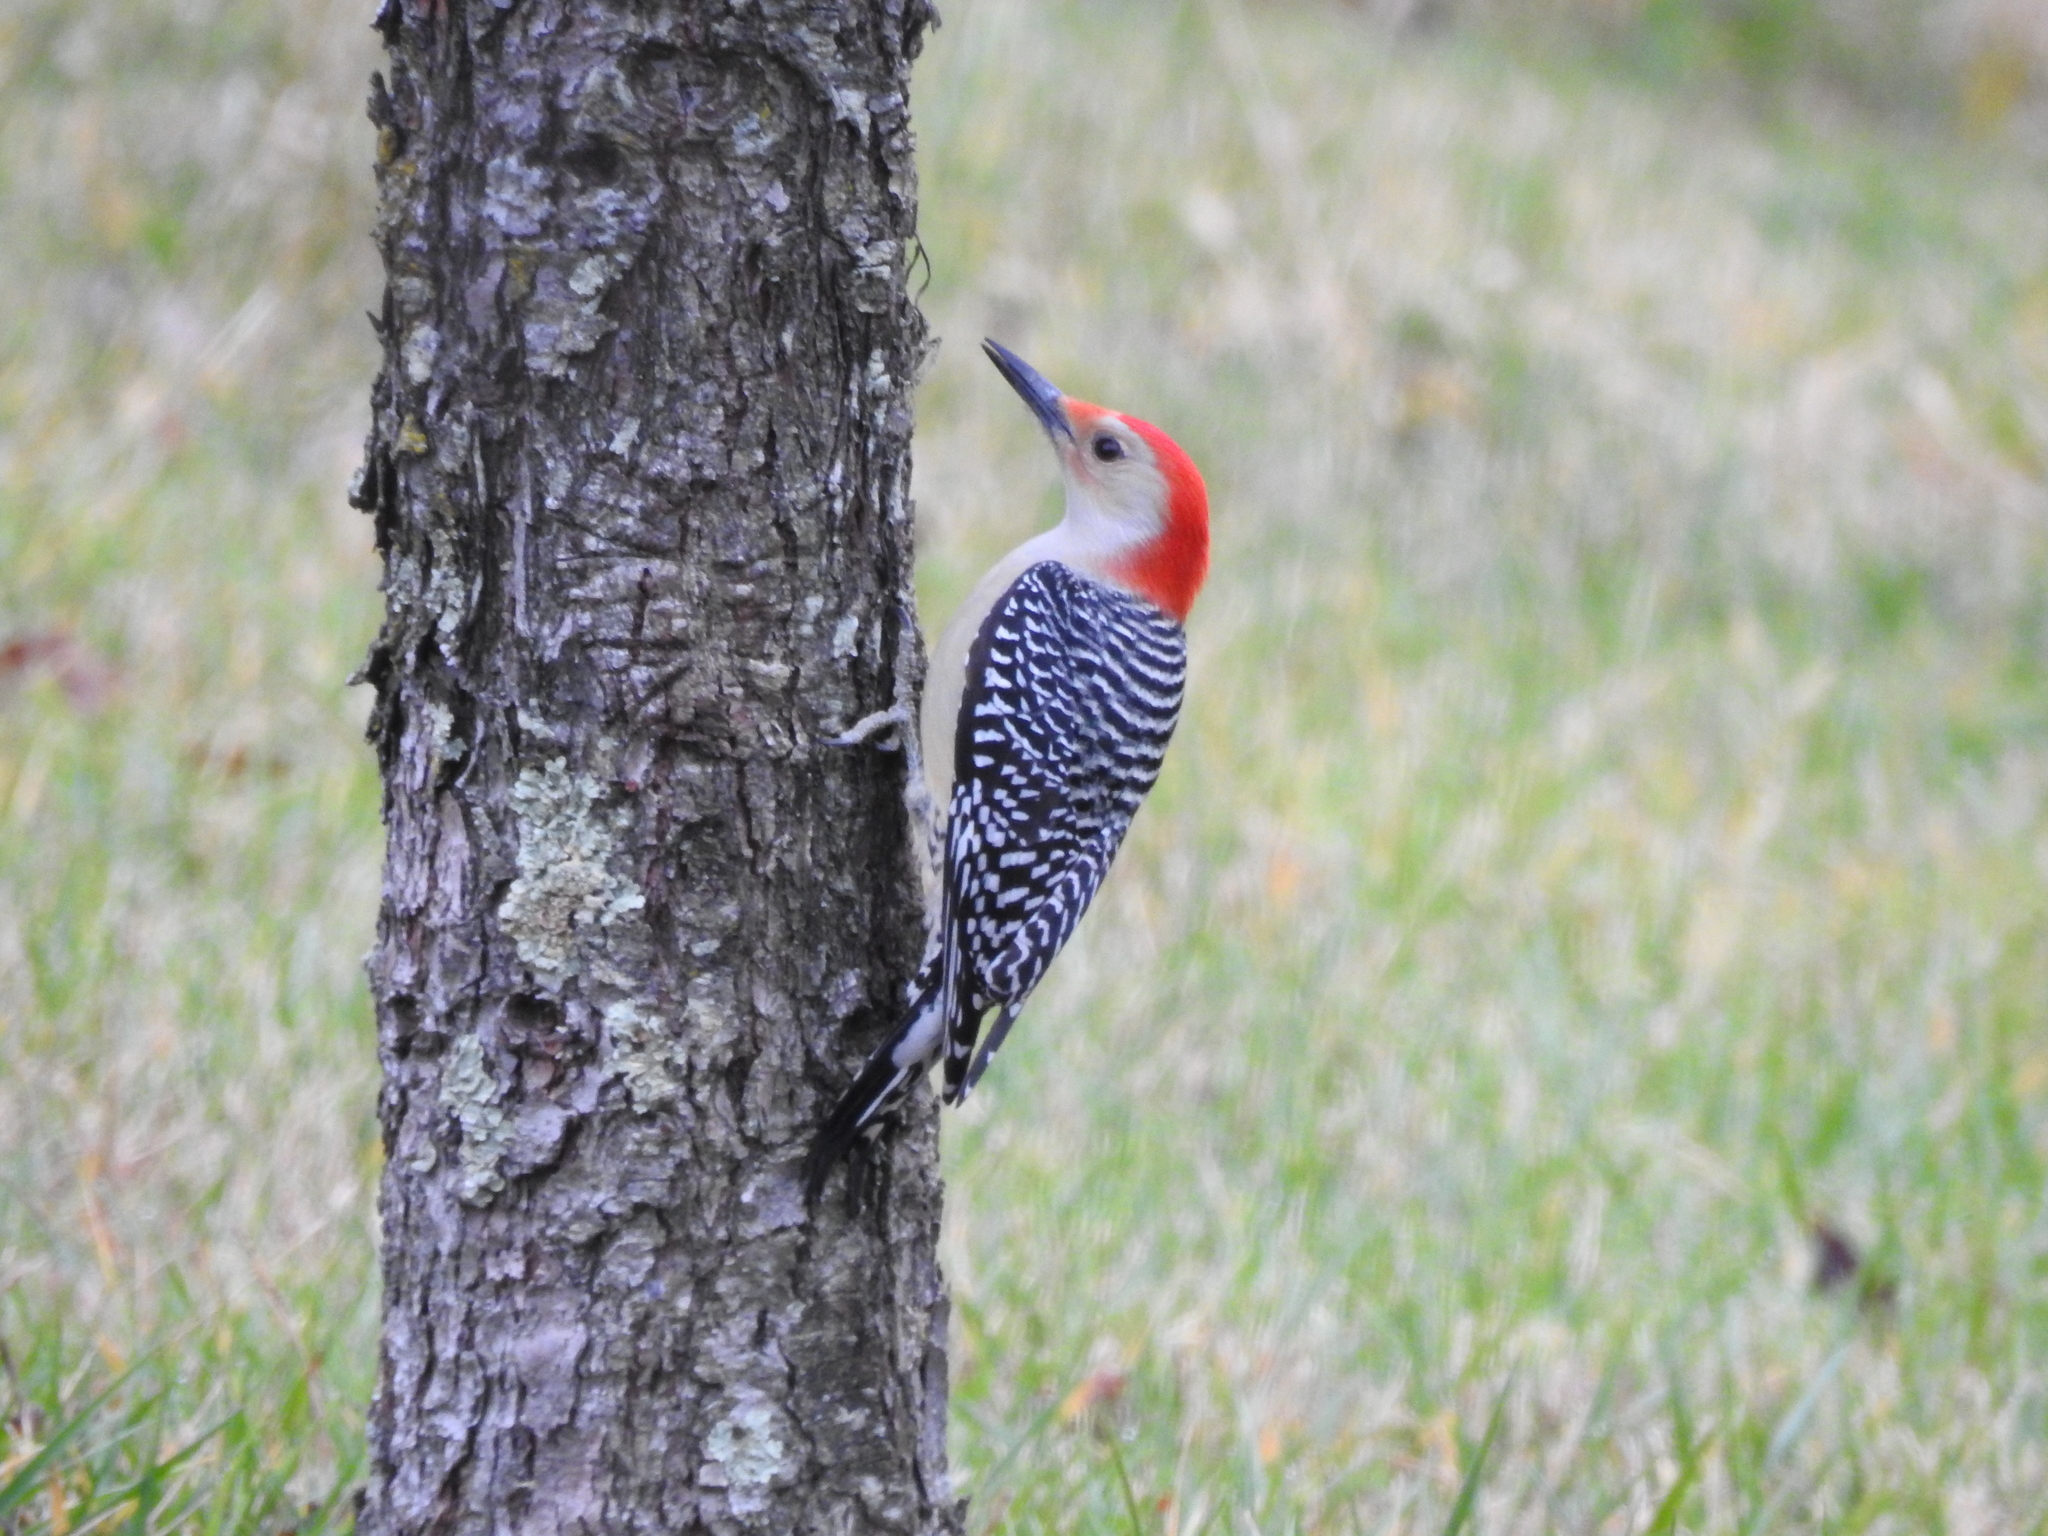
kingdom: Animalia
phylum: Chordata
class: Aves
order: Piciformes
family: Picidae
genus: Melanerpes
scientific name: Melanerpes carolinus
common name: Red-bellied woodpecker
